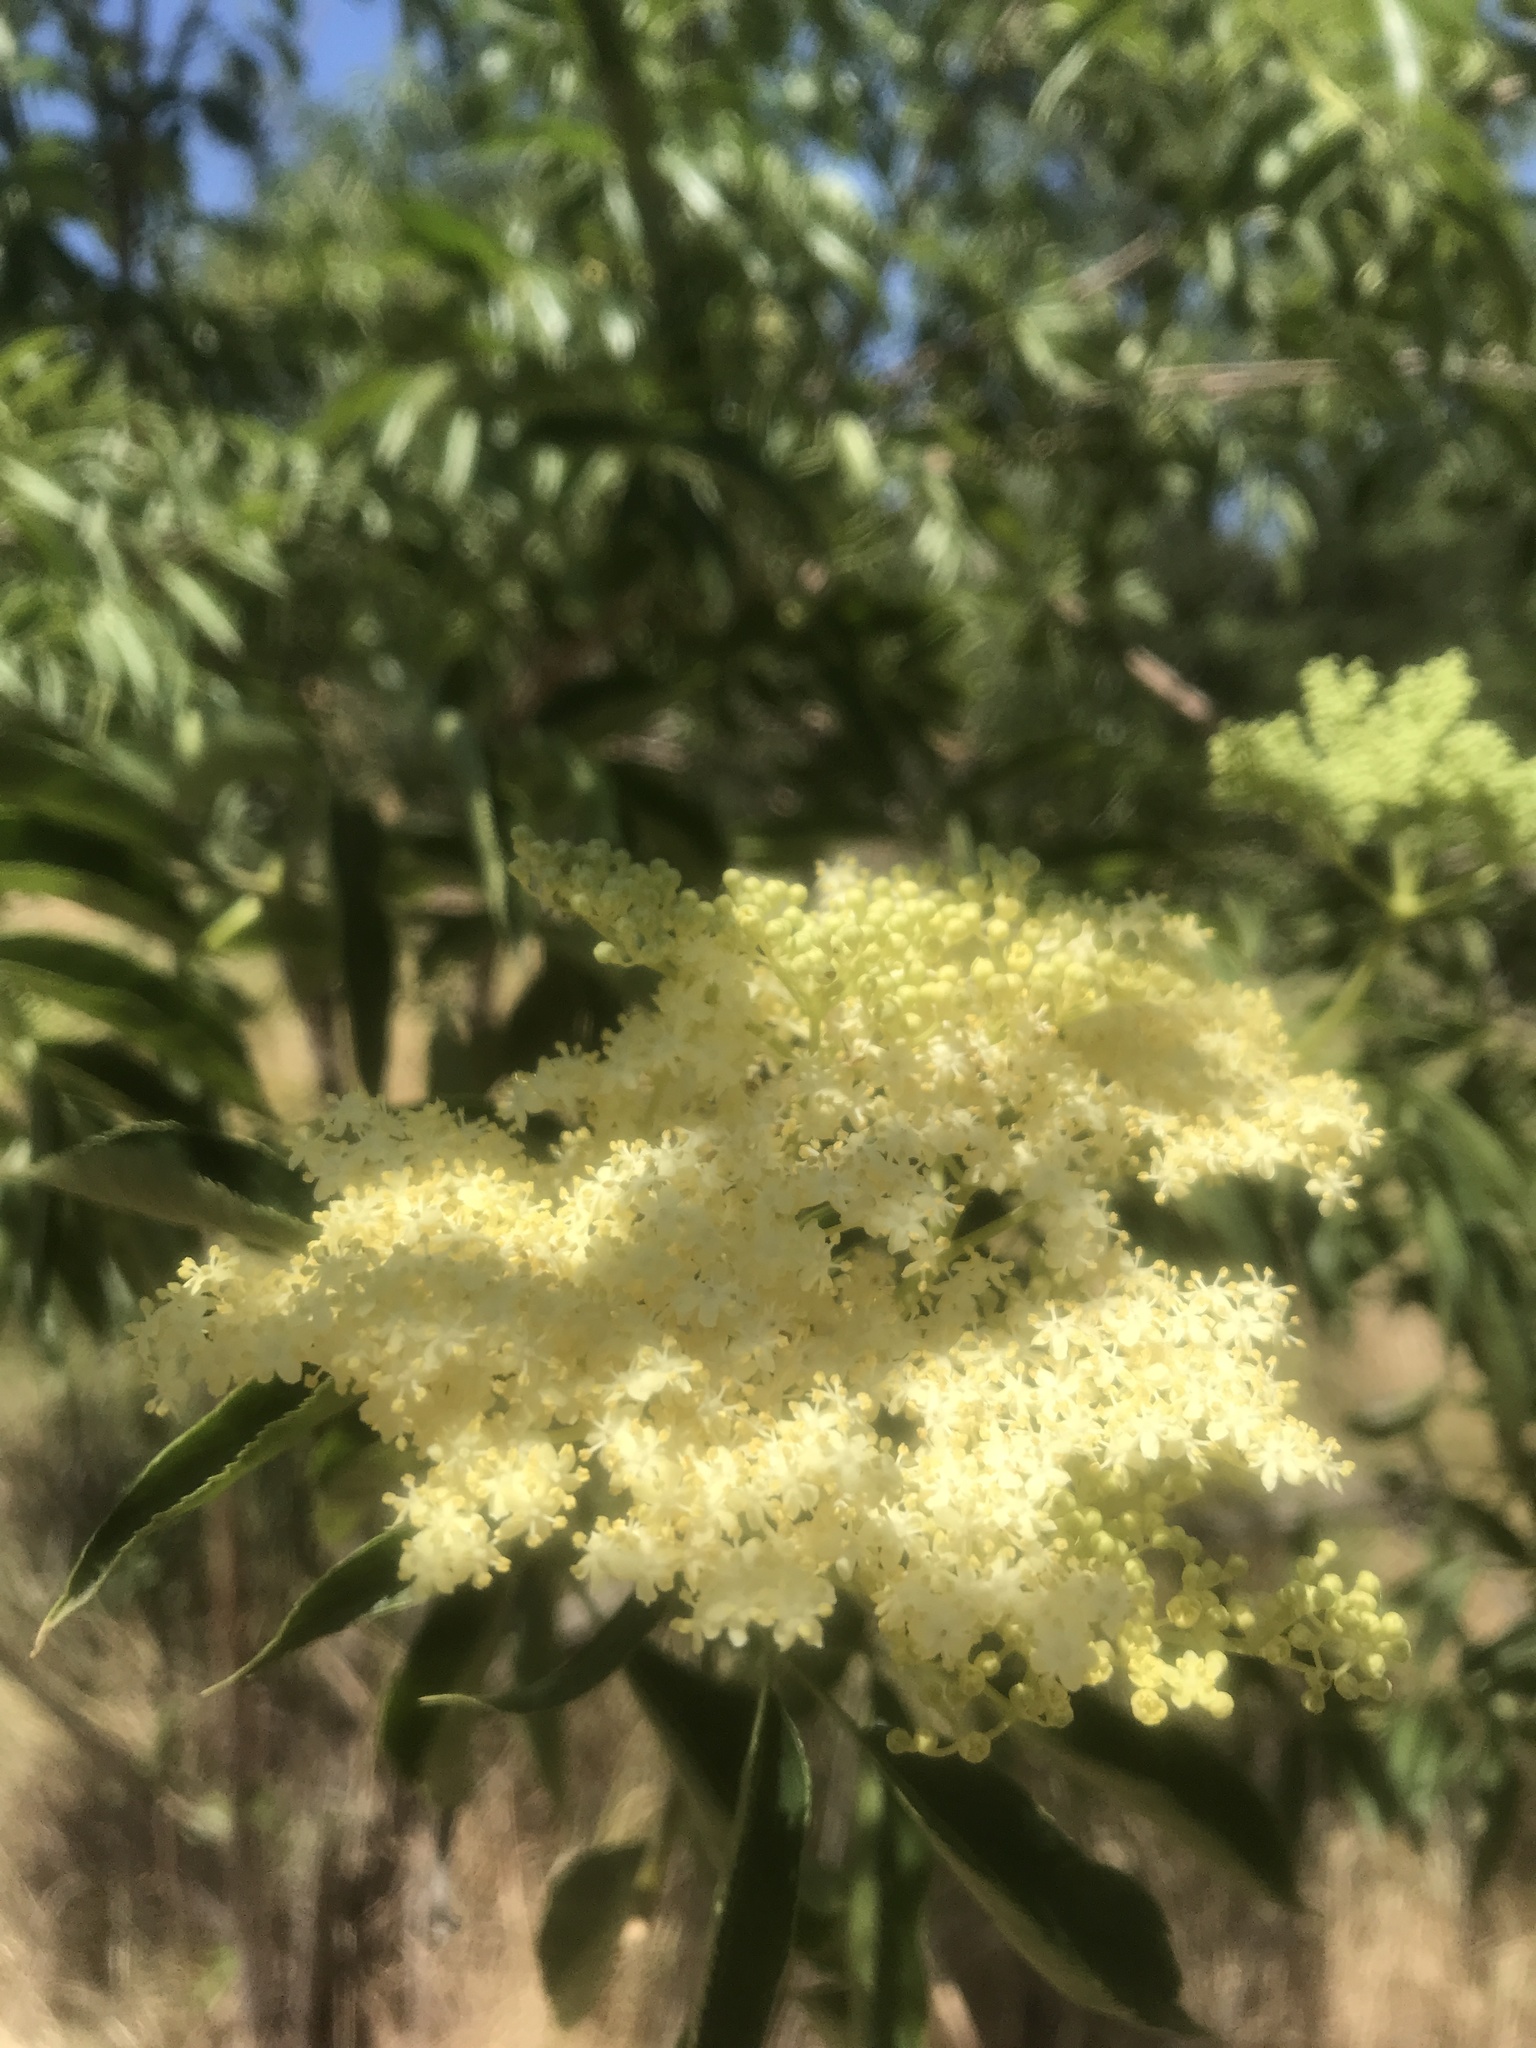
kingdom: Plantae
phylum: Tracheophyta
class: Magnoliopsida
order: Dipsacales
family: Viburnaceae
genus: Sambucus
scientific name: Sambucus cerulea
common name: Blue elder
